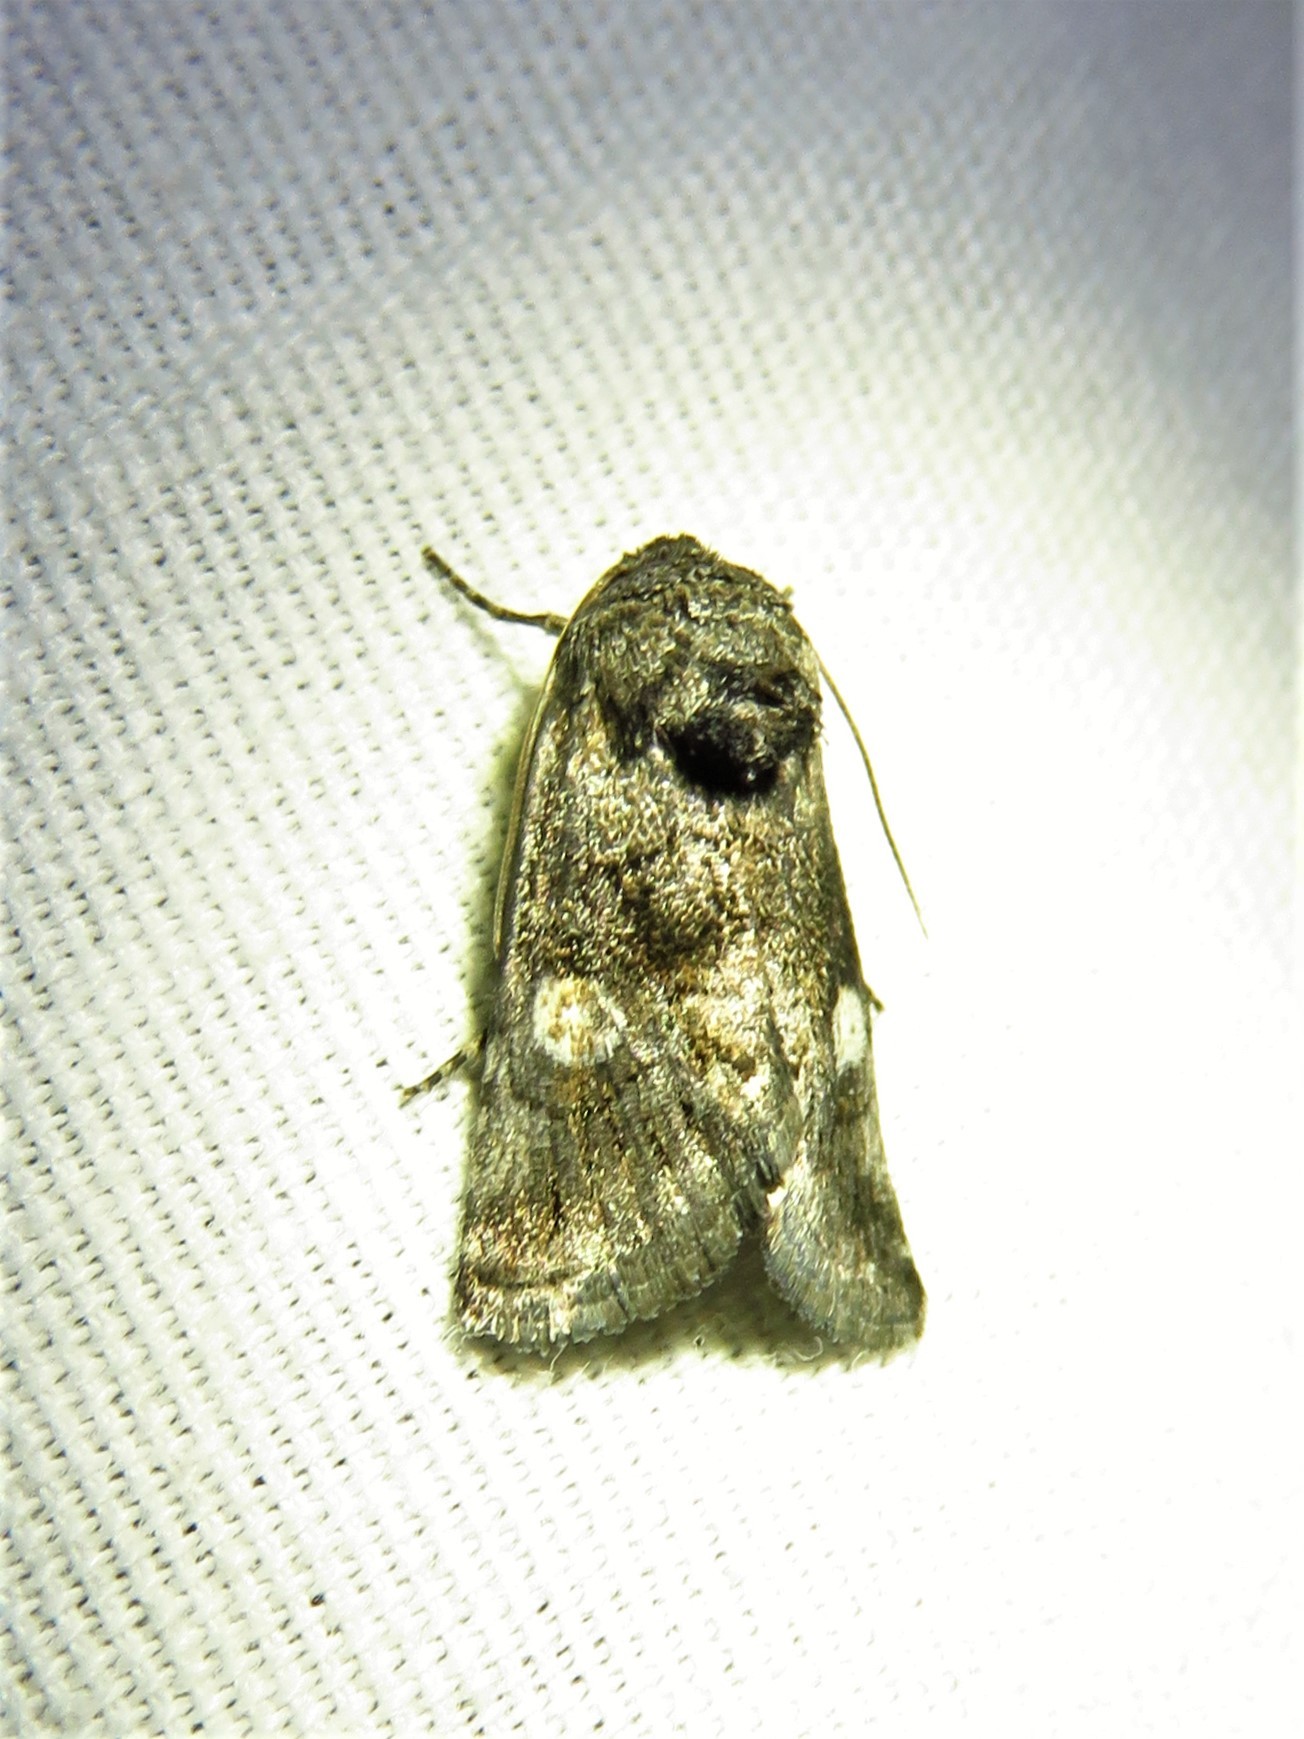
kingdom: Animalia
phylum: Arthropoda
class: Insecta
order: Lepidoptera
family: Noctuidae
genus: Copanarta
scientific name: Copanarta aurea
